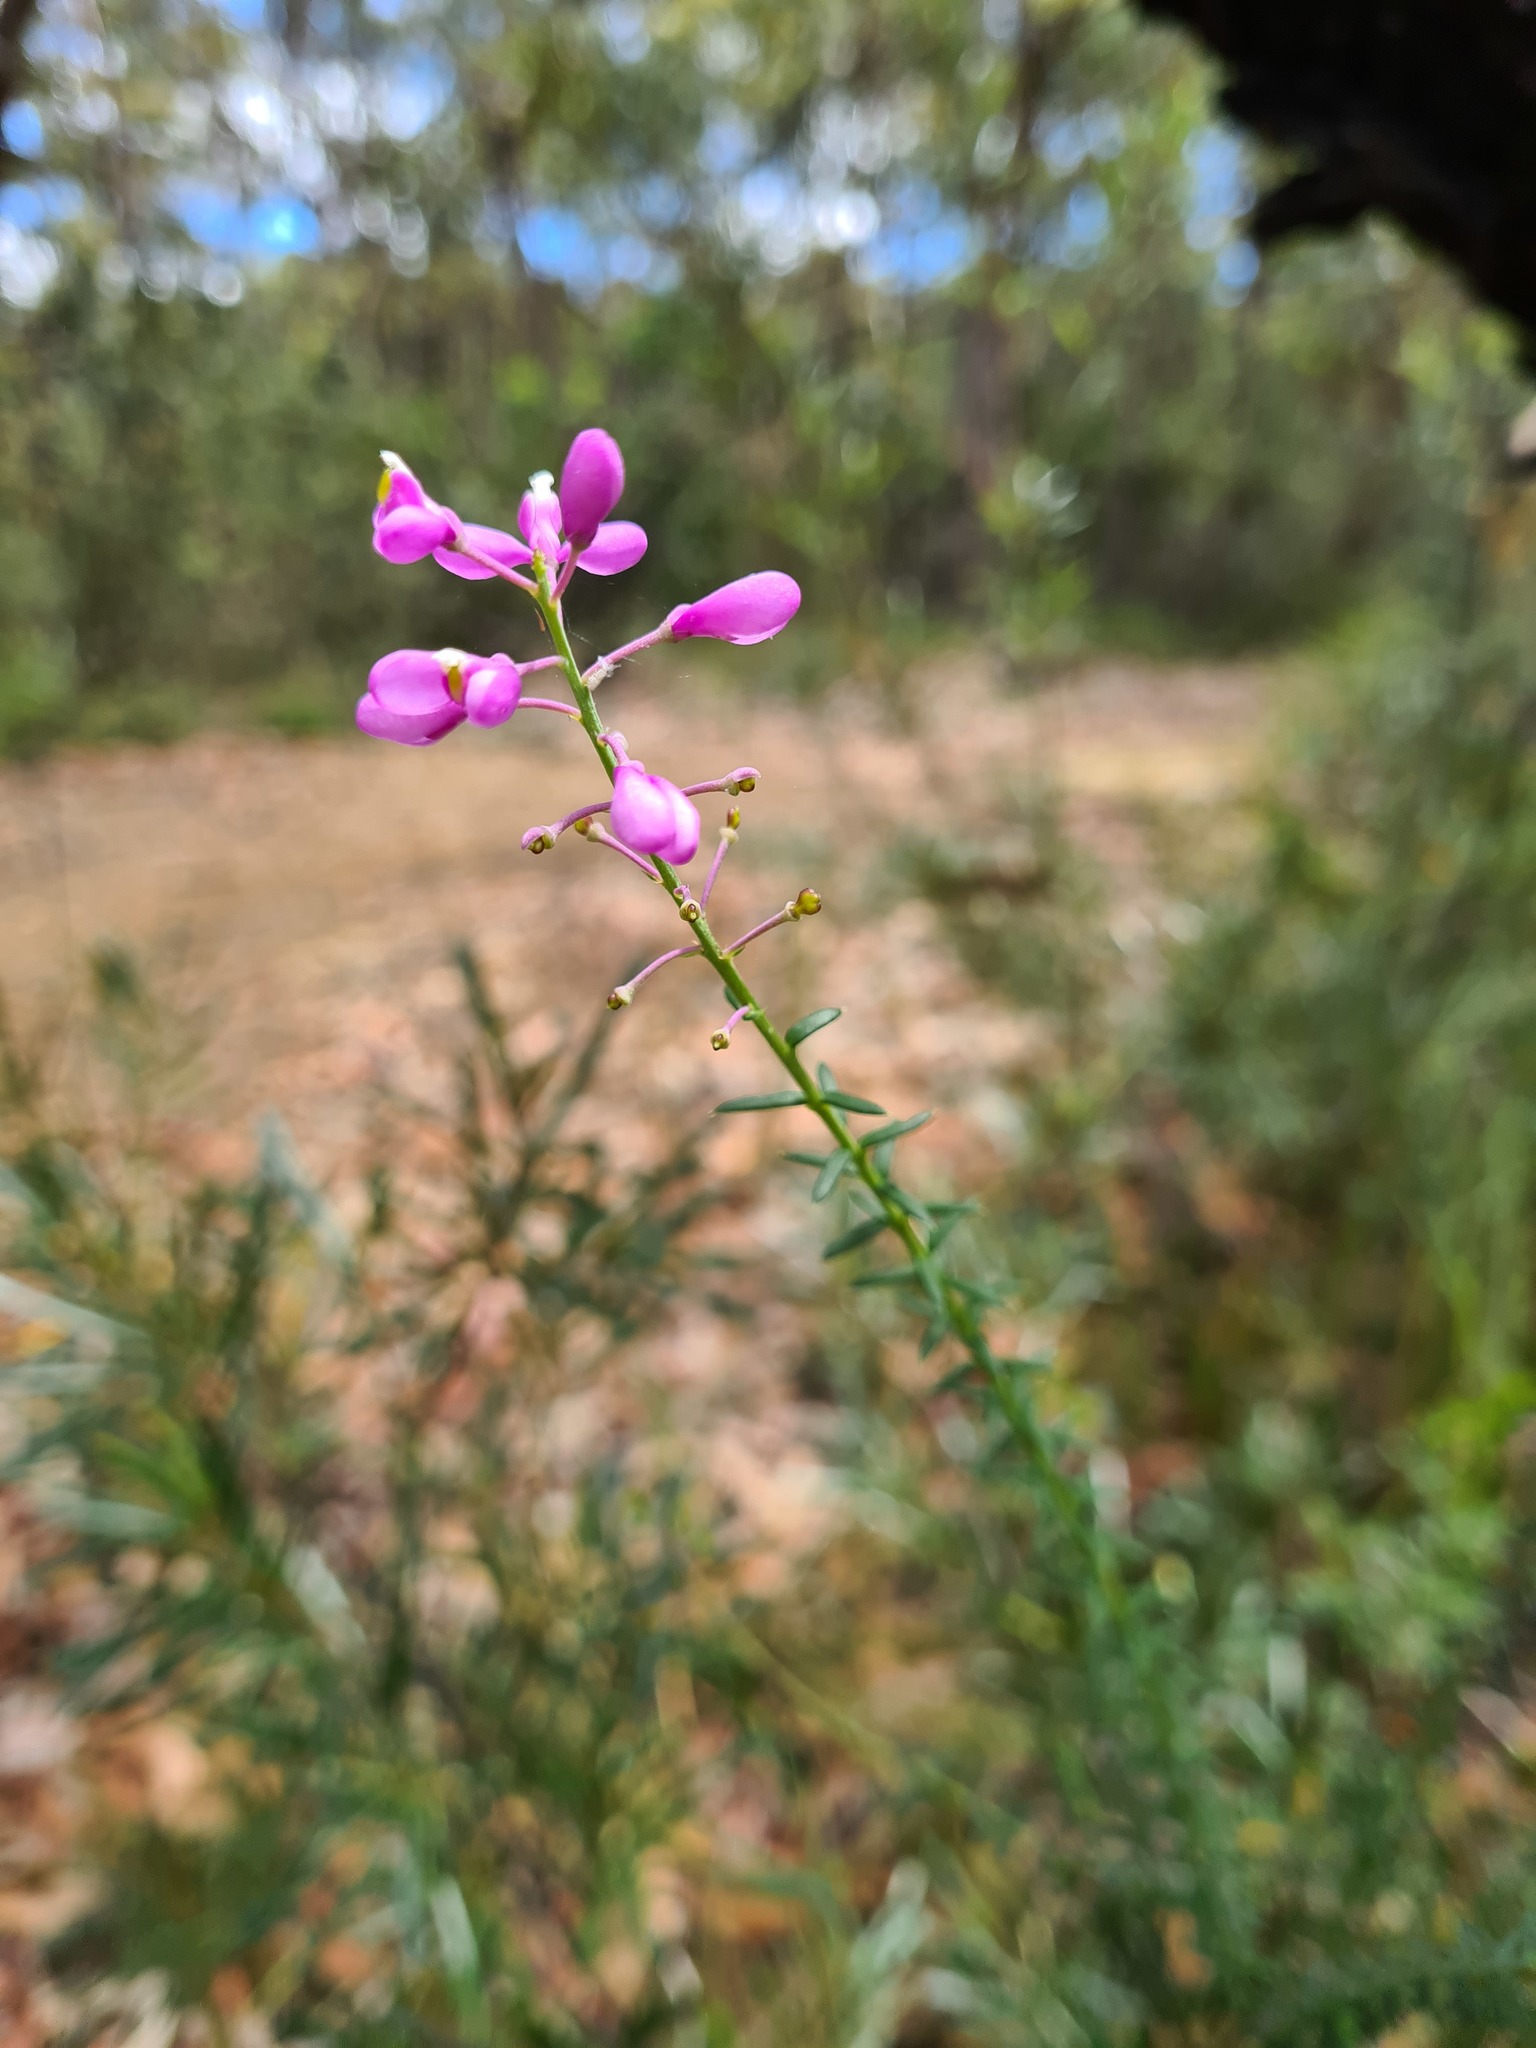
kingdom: Plantae
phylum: Tracheophyta
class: Magnoliopsida
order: Fabales
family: Polygalaceae
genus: Comesperma
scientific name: Comesperma ericinum
